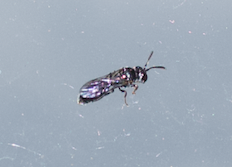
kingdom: Animalia
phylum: Arthropoda
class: Insecta
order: Hymenoptera
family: Crabronidae
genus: Psenulus
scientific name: Psenulus
